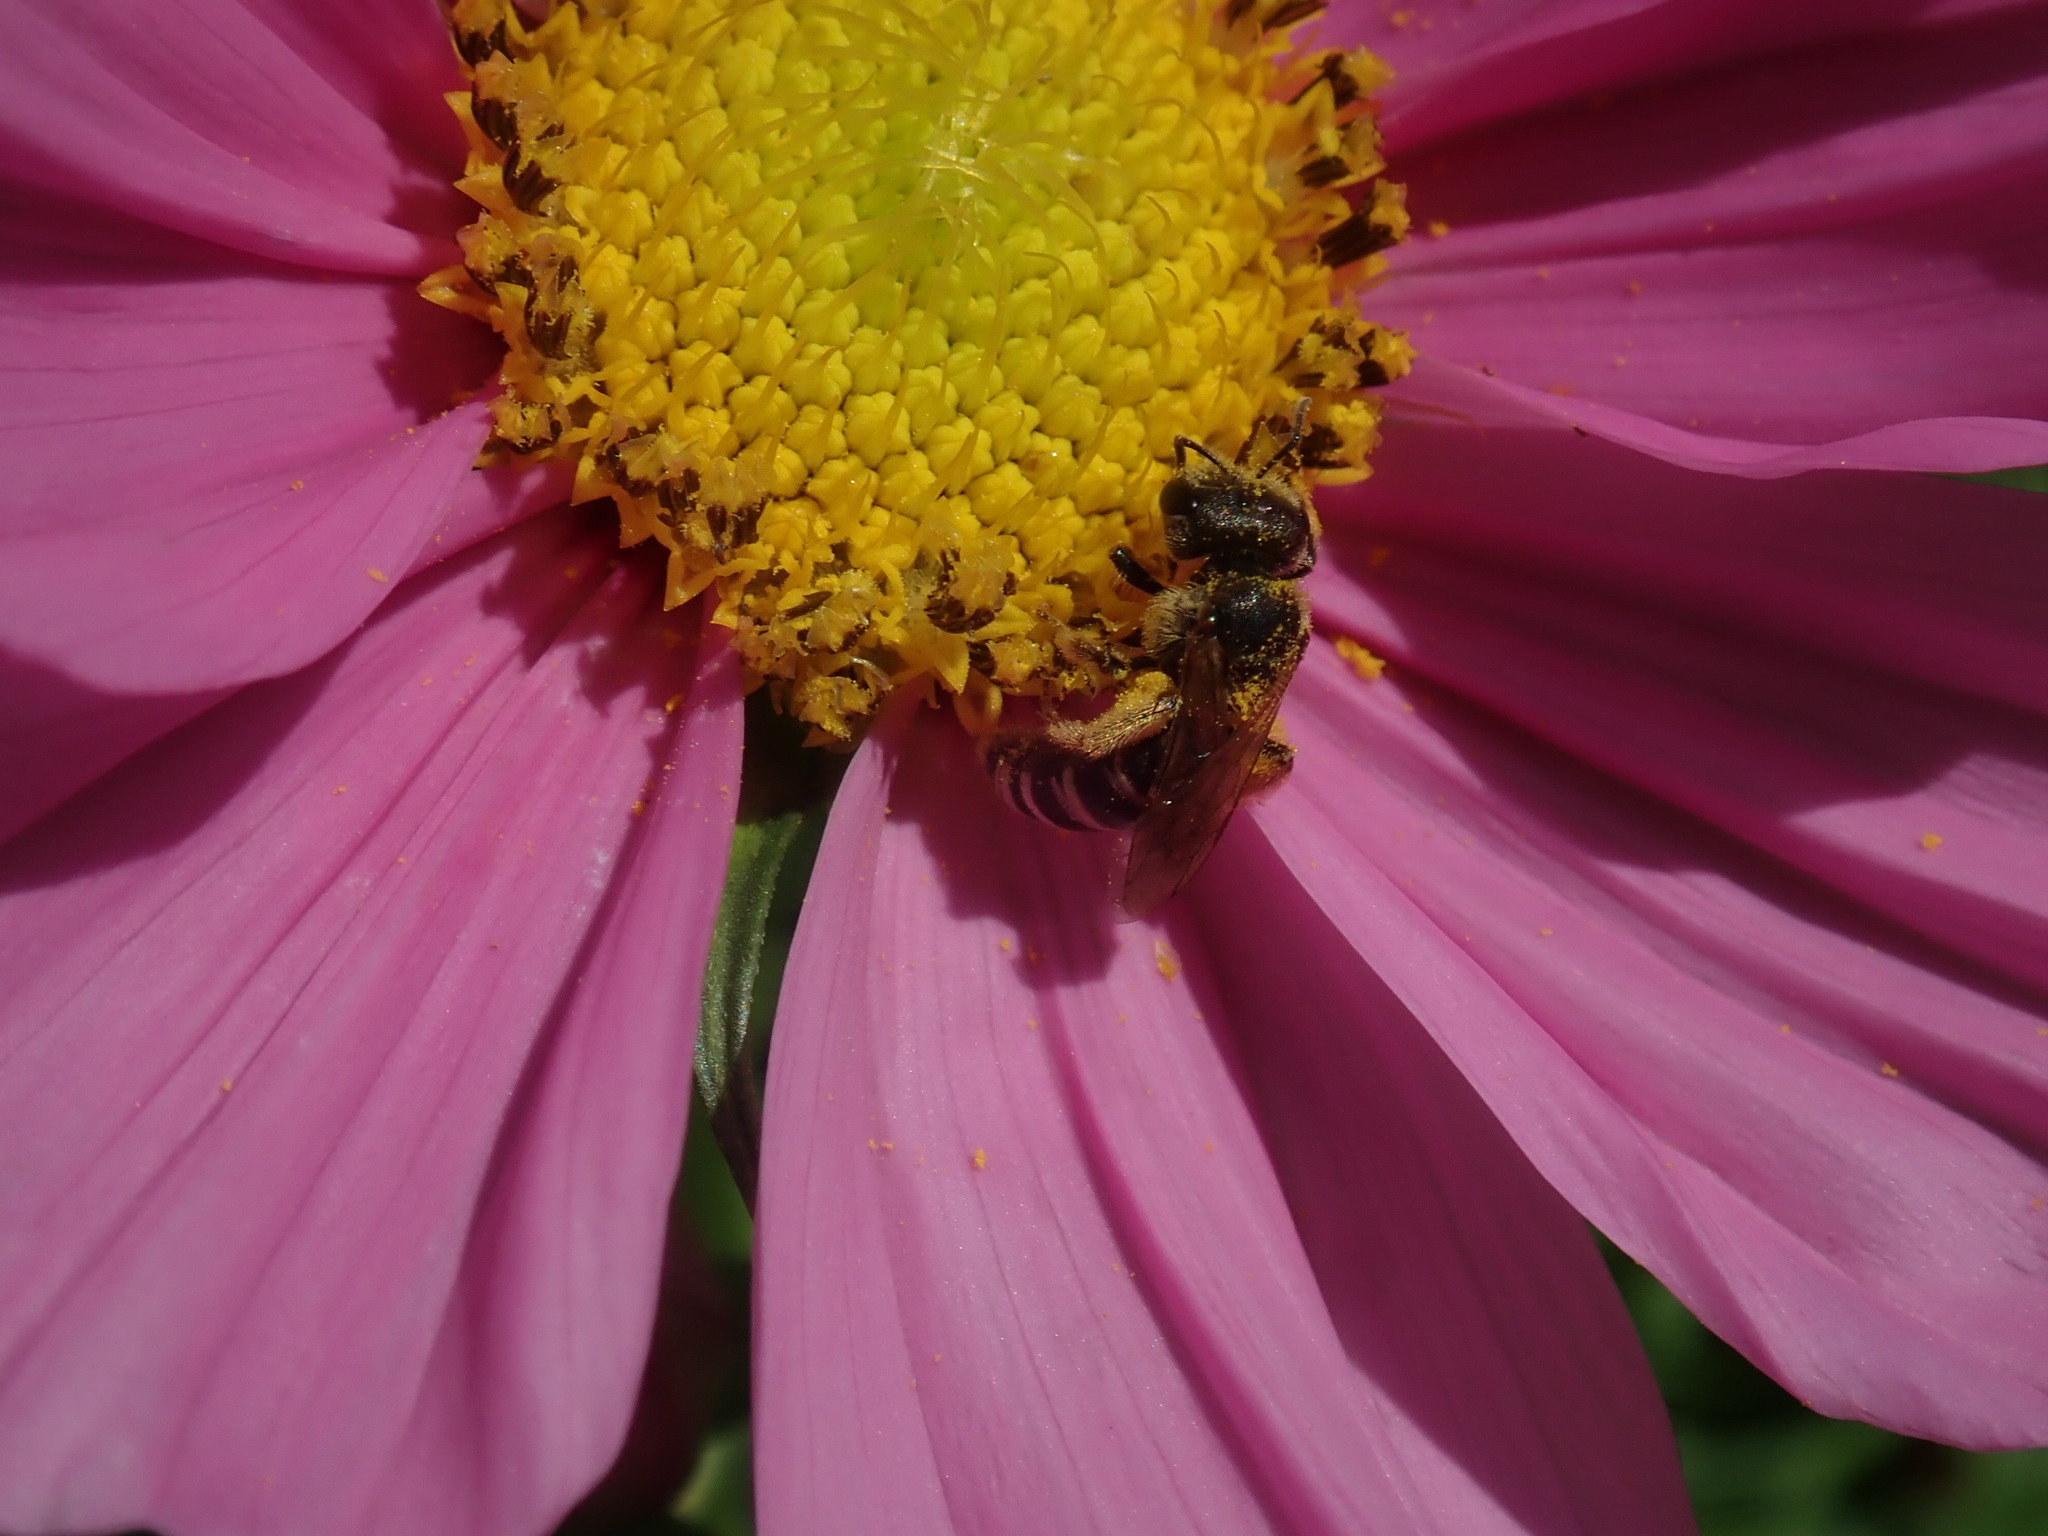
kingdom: Animalia
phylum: Arthropoda
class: Insecta
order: Hymenoptera
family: Halictidae
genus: Halictus
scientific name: Halictus ligatus
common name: Ligated furrow bee
